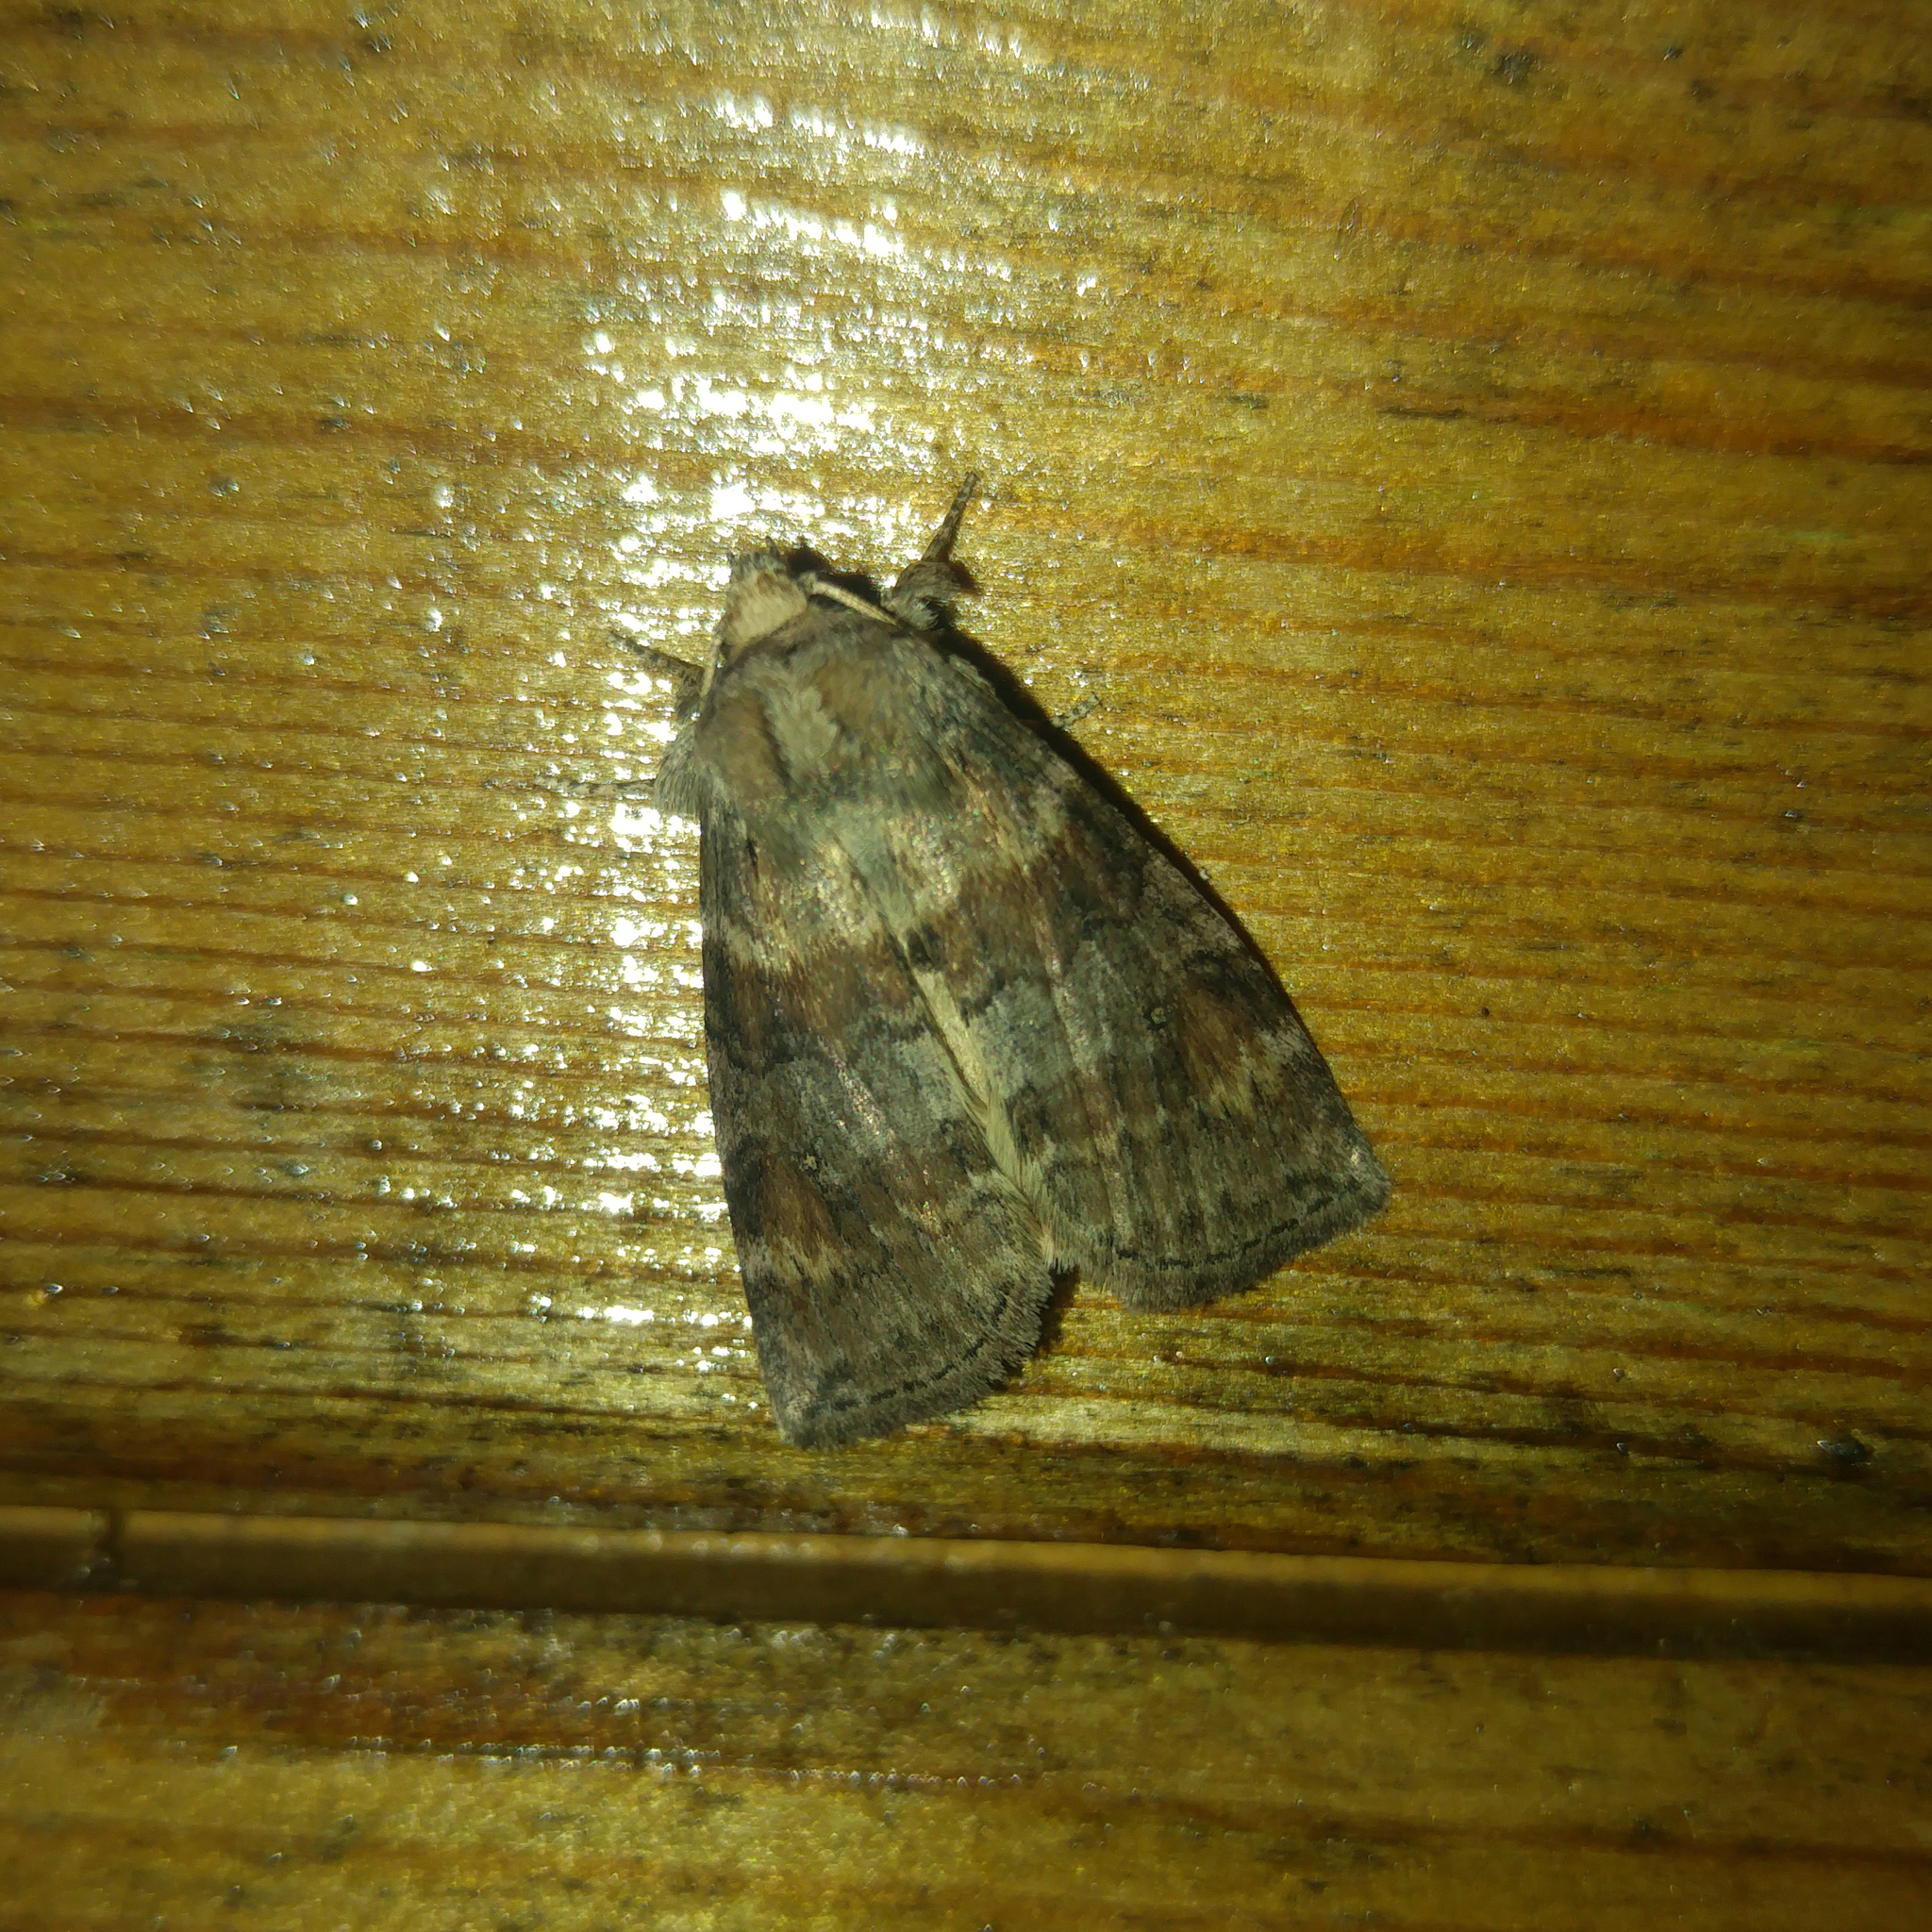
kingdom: Animalia
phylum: Arthropoda
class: Insecta
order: Lepidoptera
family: Drepanidae
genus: Cymatophorina
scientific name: Cymatophorina diluta
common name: Oak lutestring
